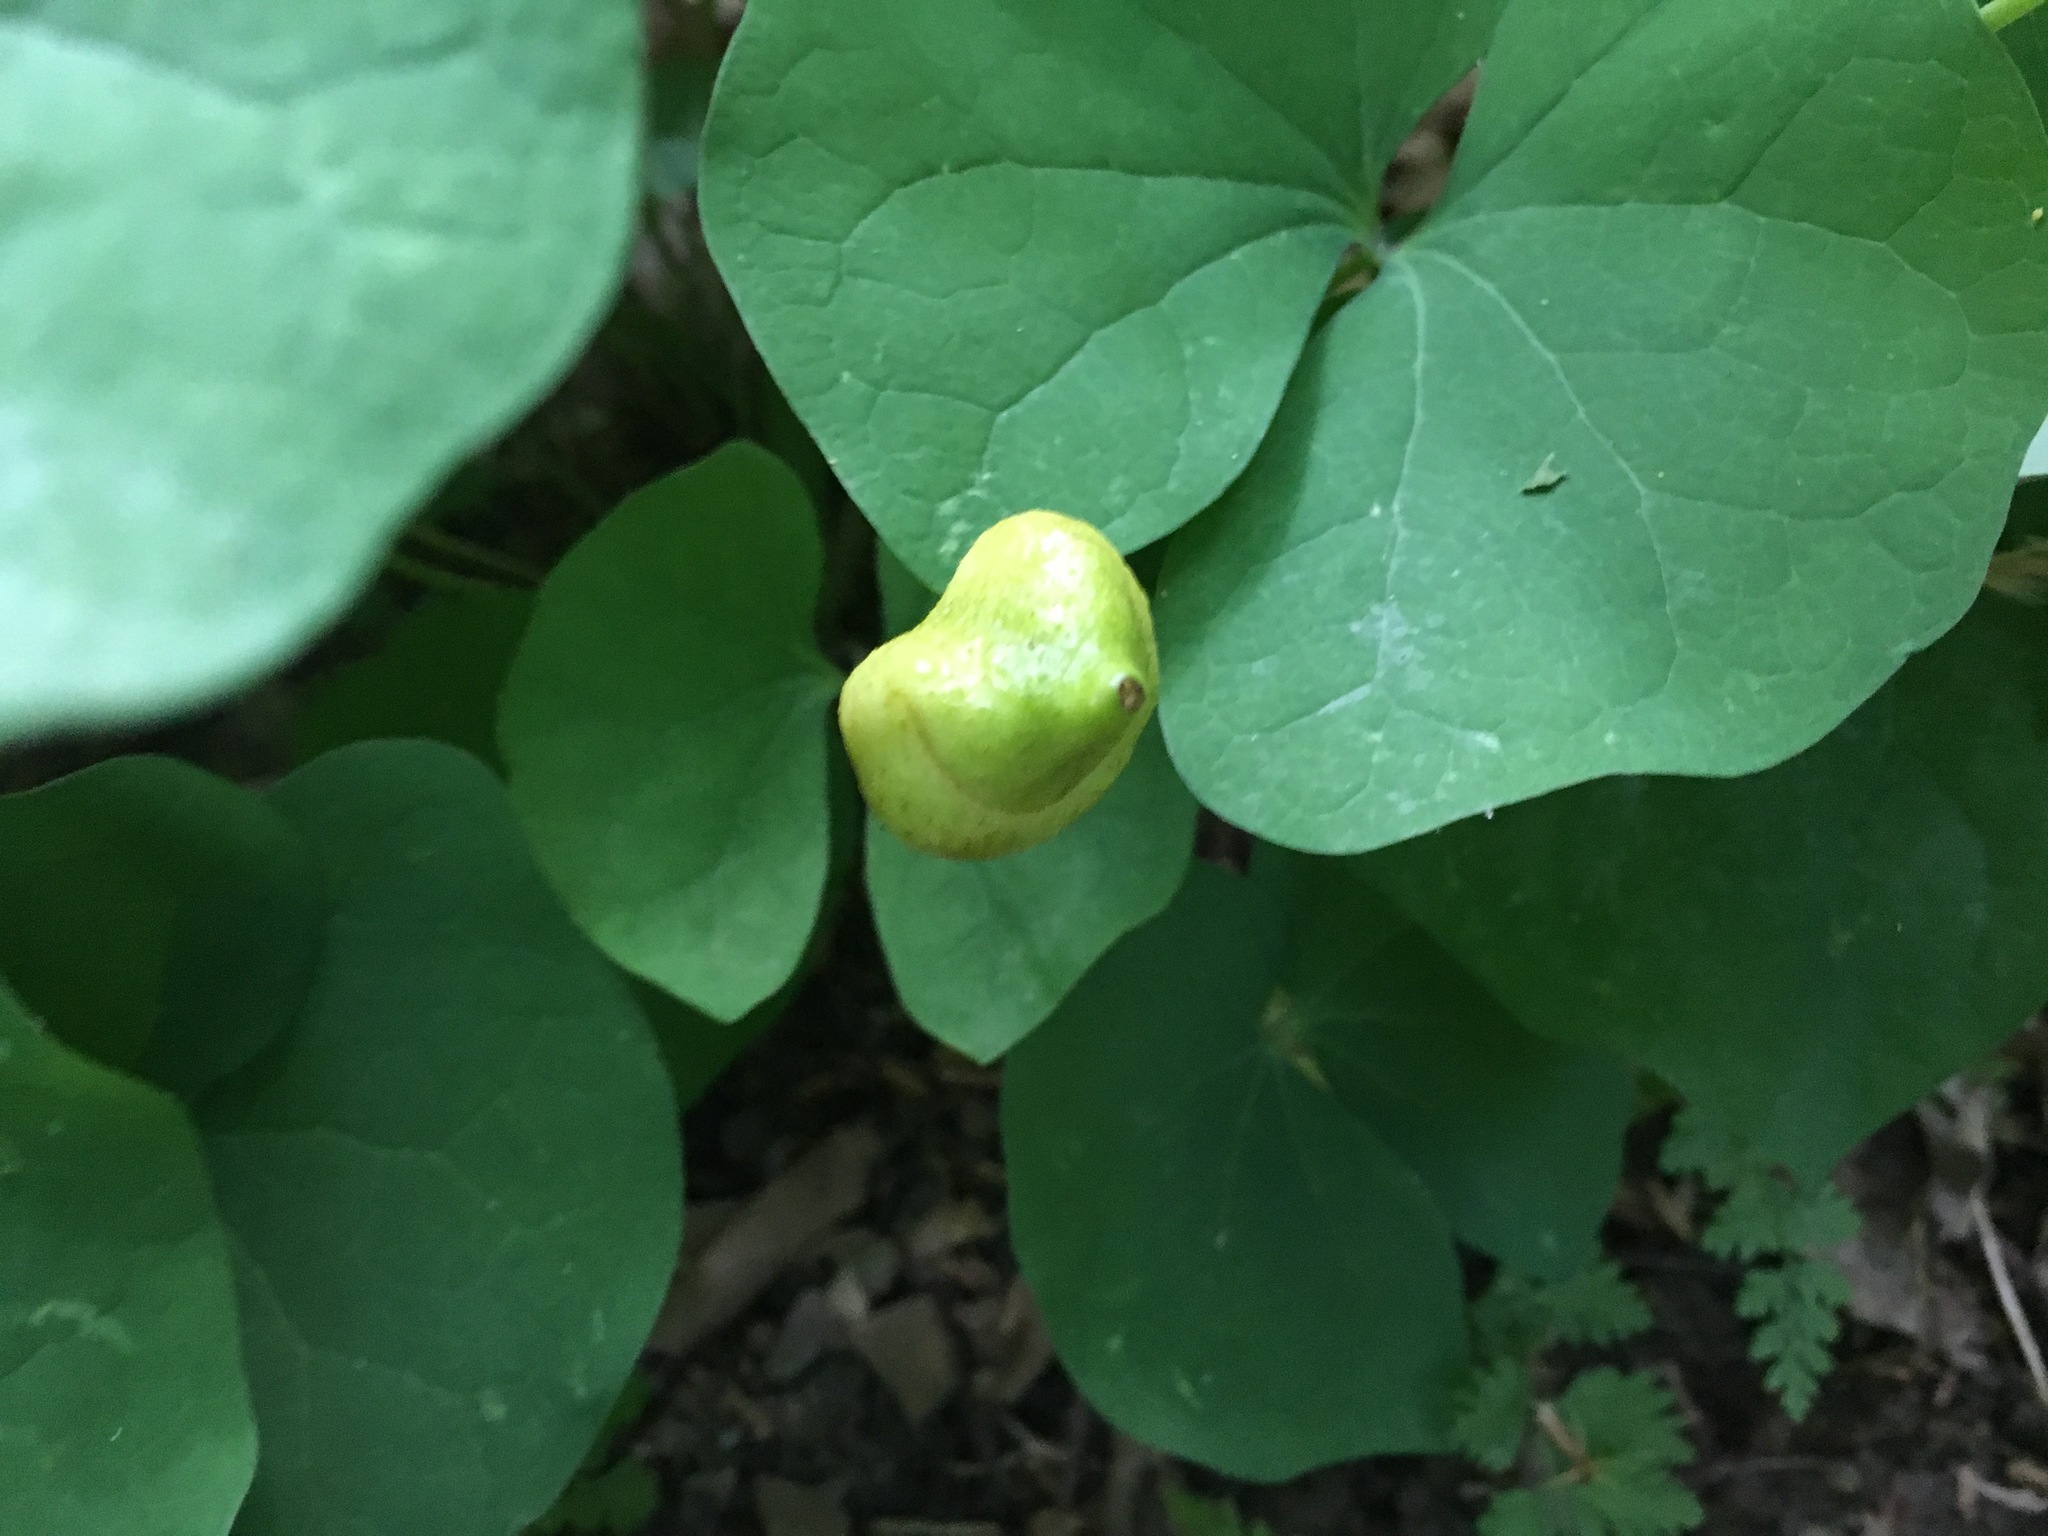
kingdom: Plantae
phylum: Tracheophyta
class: Magnoliopsida
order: Ranunculales
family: Berberidaceae
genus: Jeffersonia
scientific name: Jeffersonia diphylla
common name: Rheumatism-root
